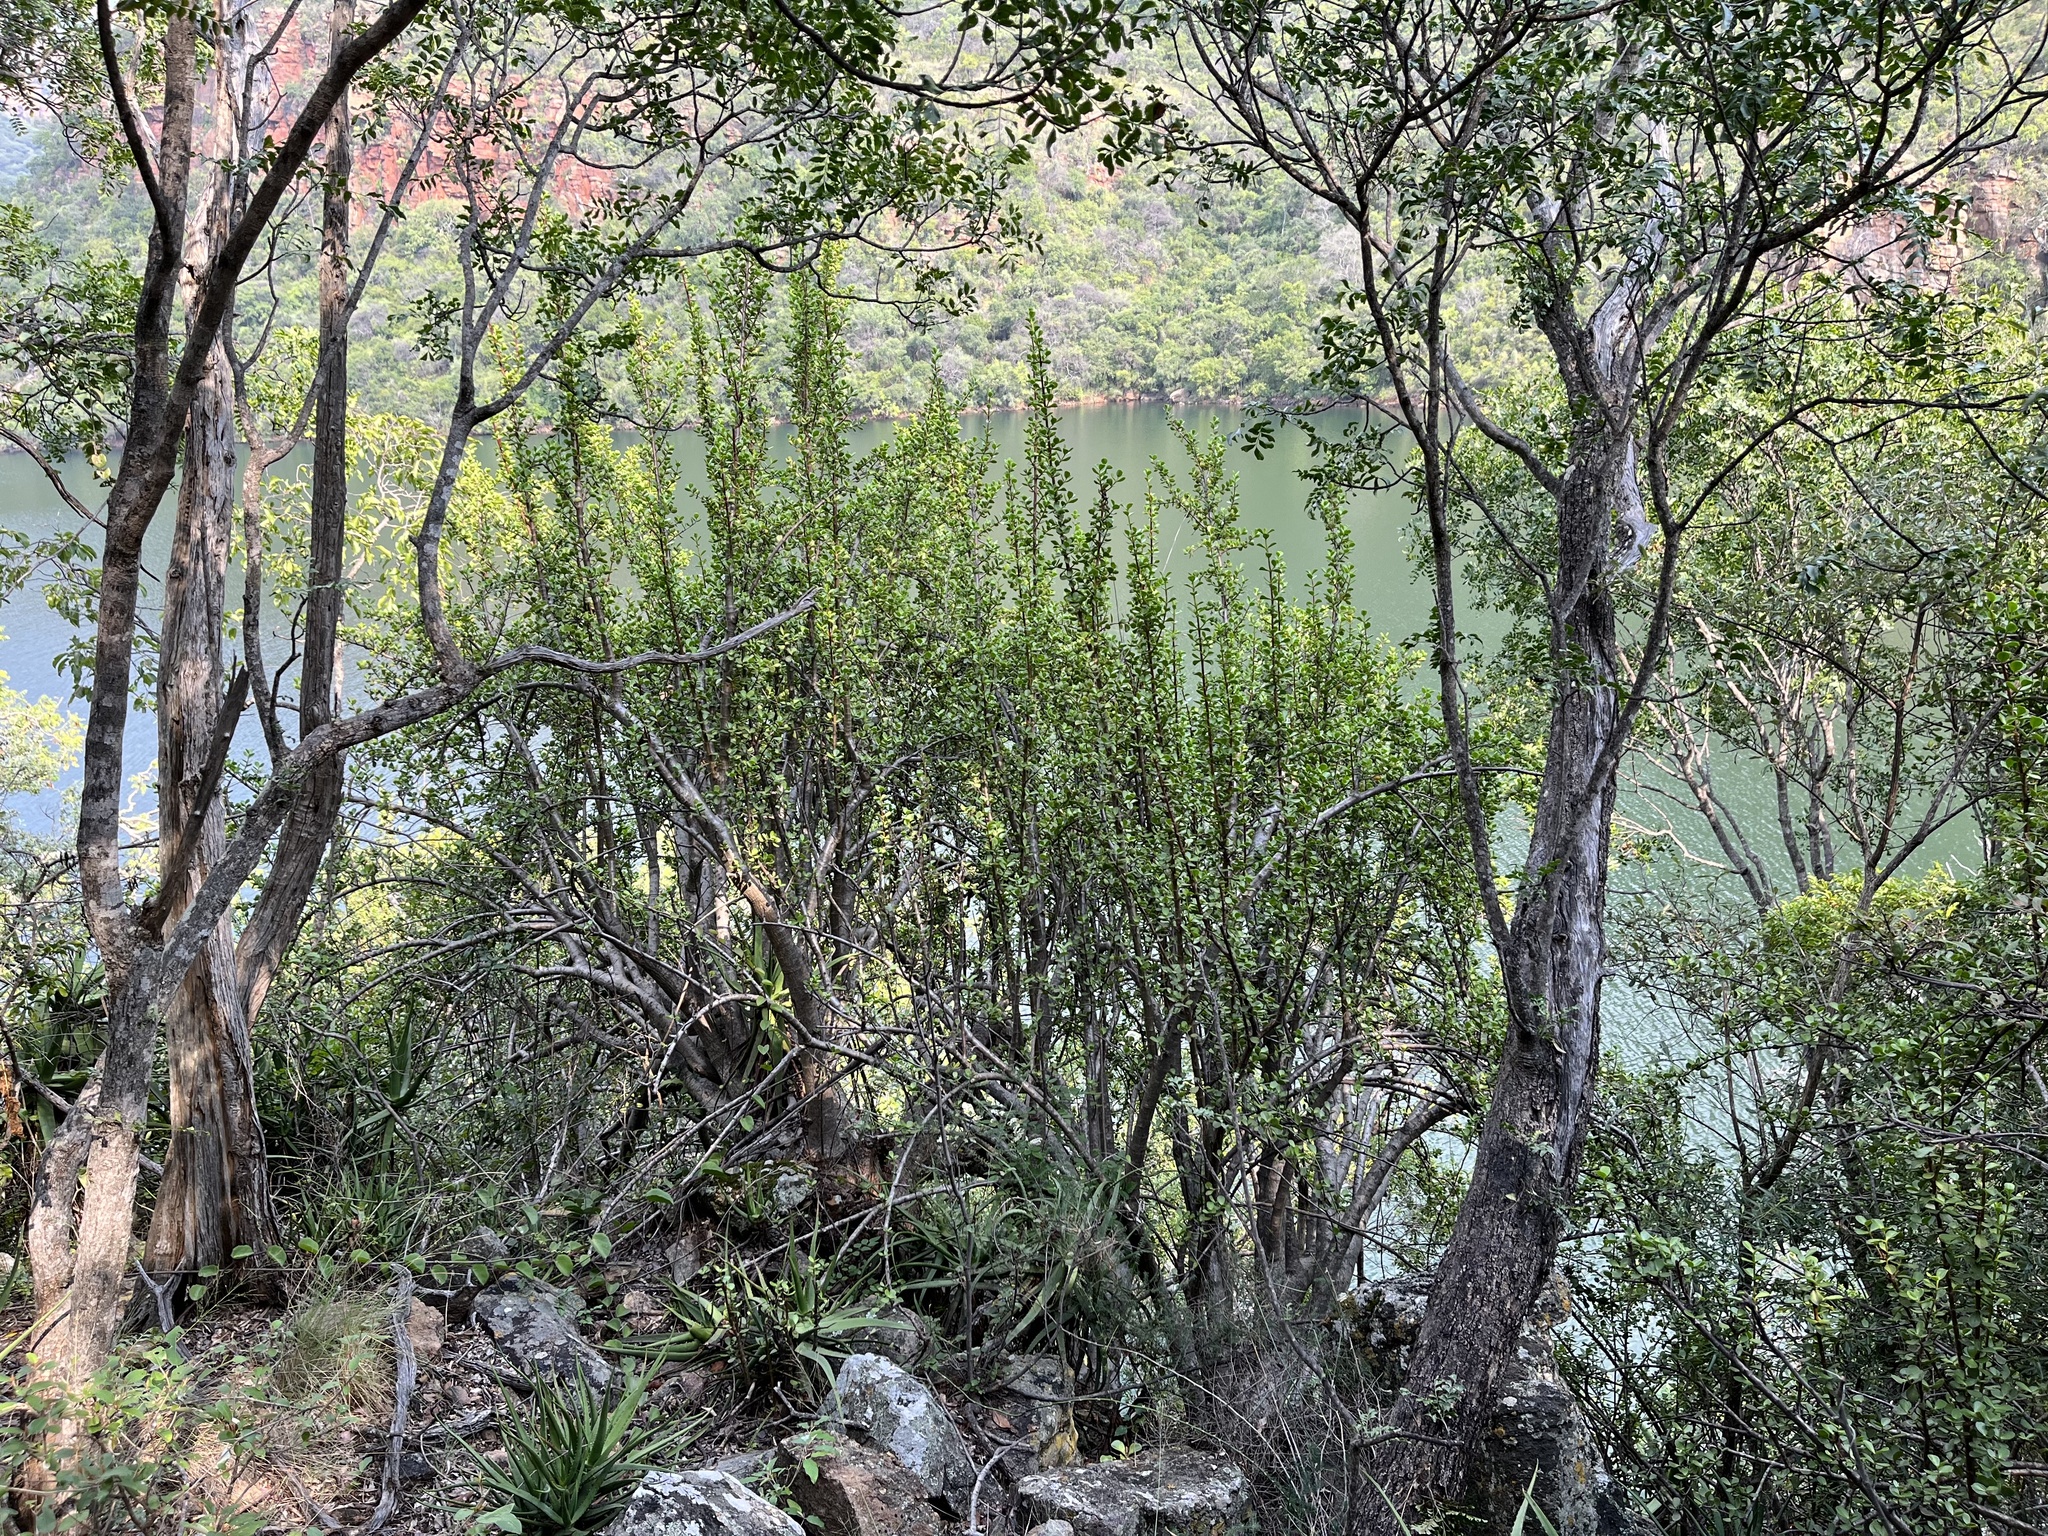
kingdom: Plantae
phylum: Tracheophyta
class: Magnoliopsida
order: Caryophyllales
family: Didiereaceae
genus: Portulacaria
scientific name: Portulacaria afra
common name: Elephant-bush
